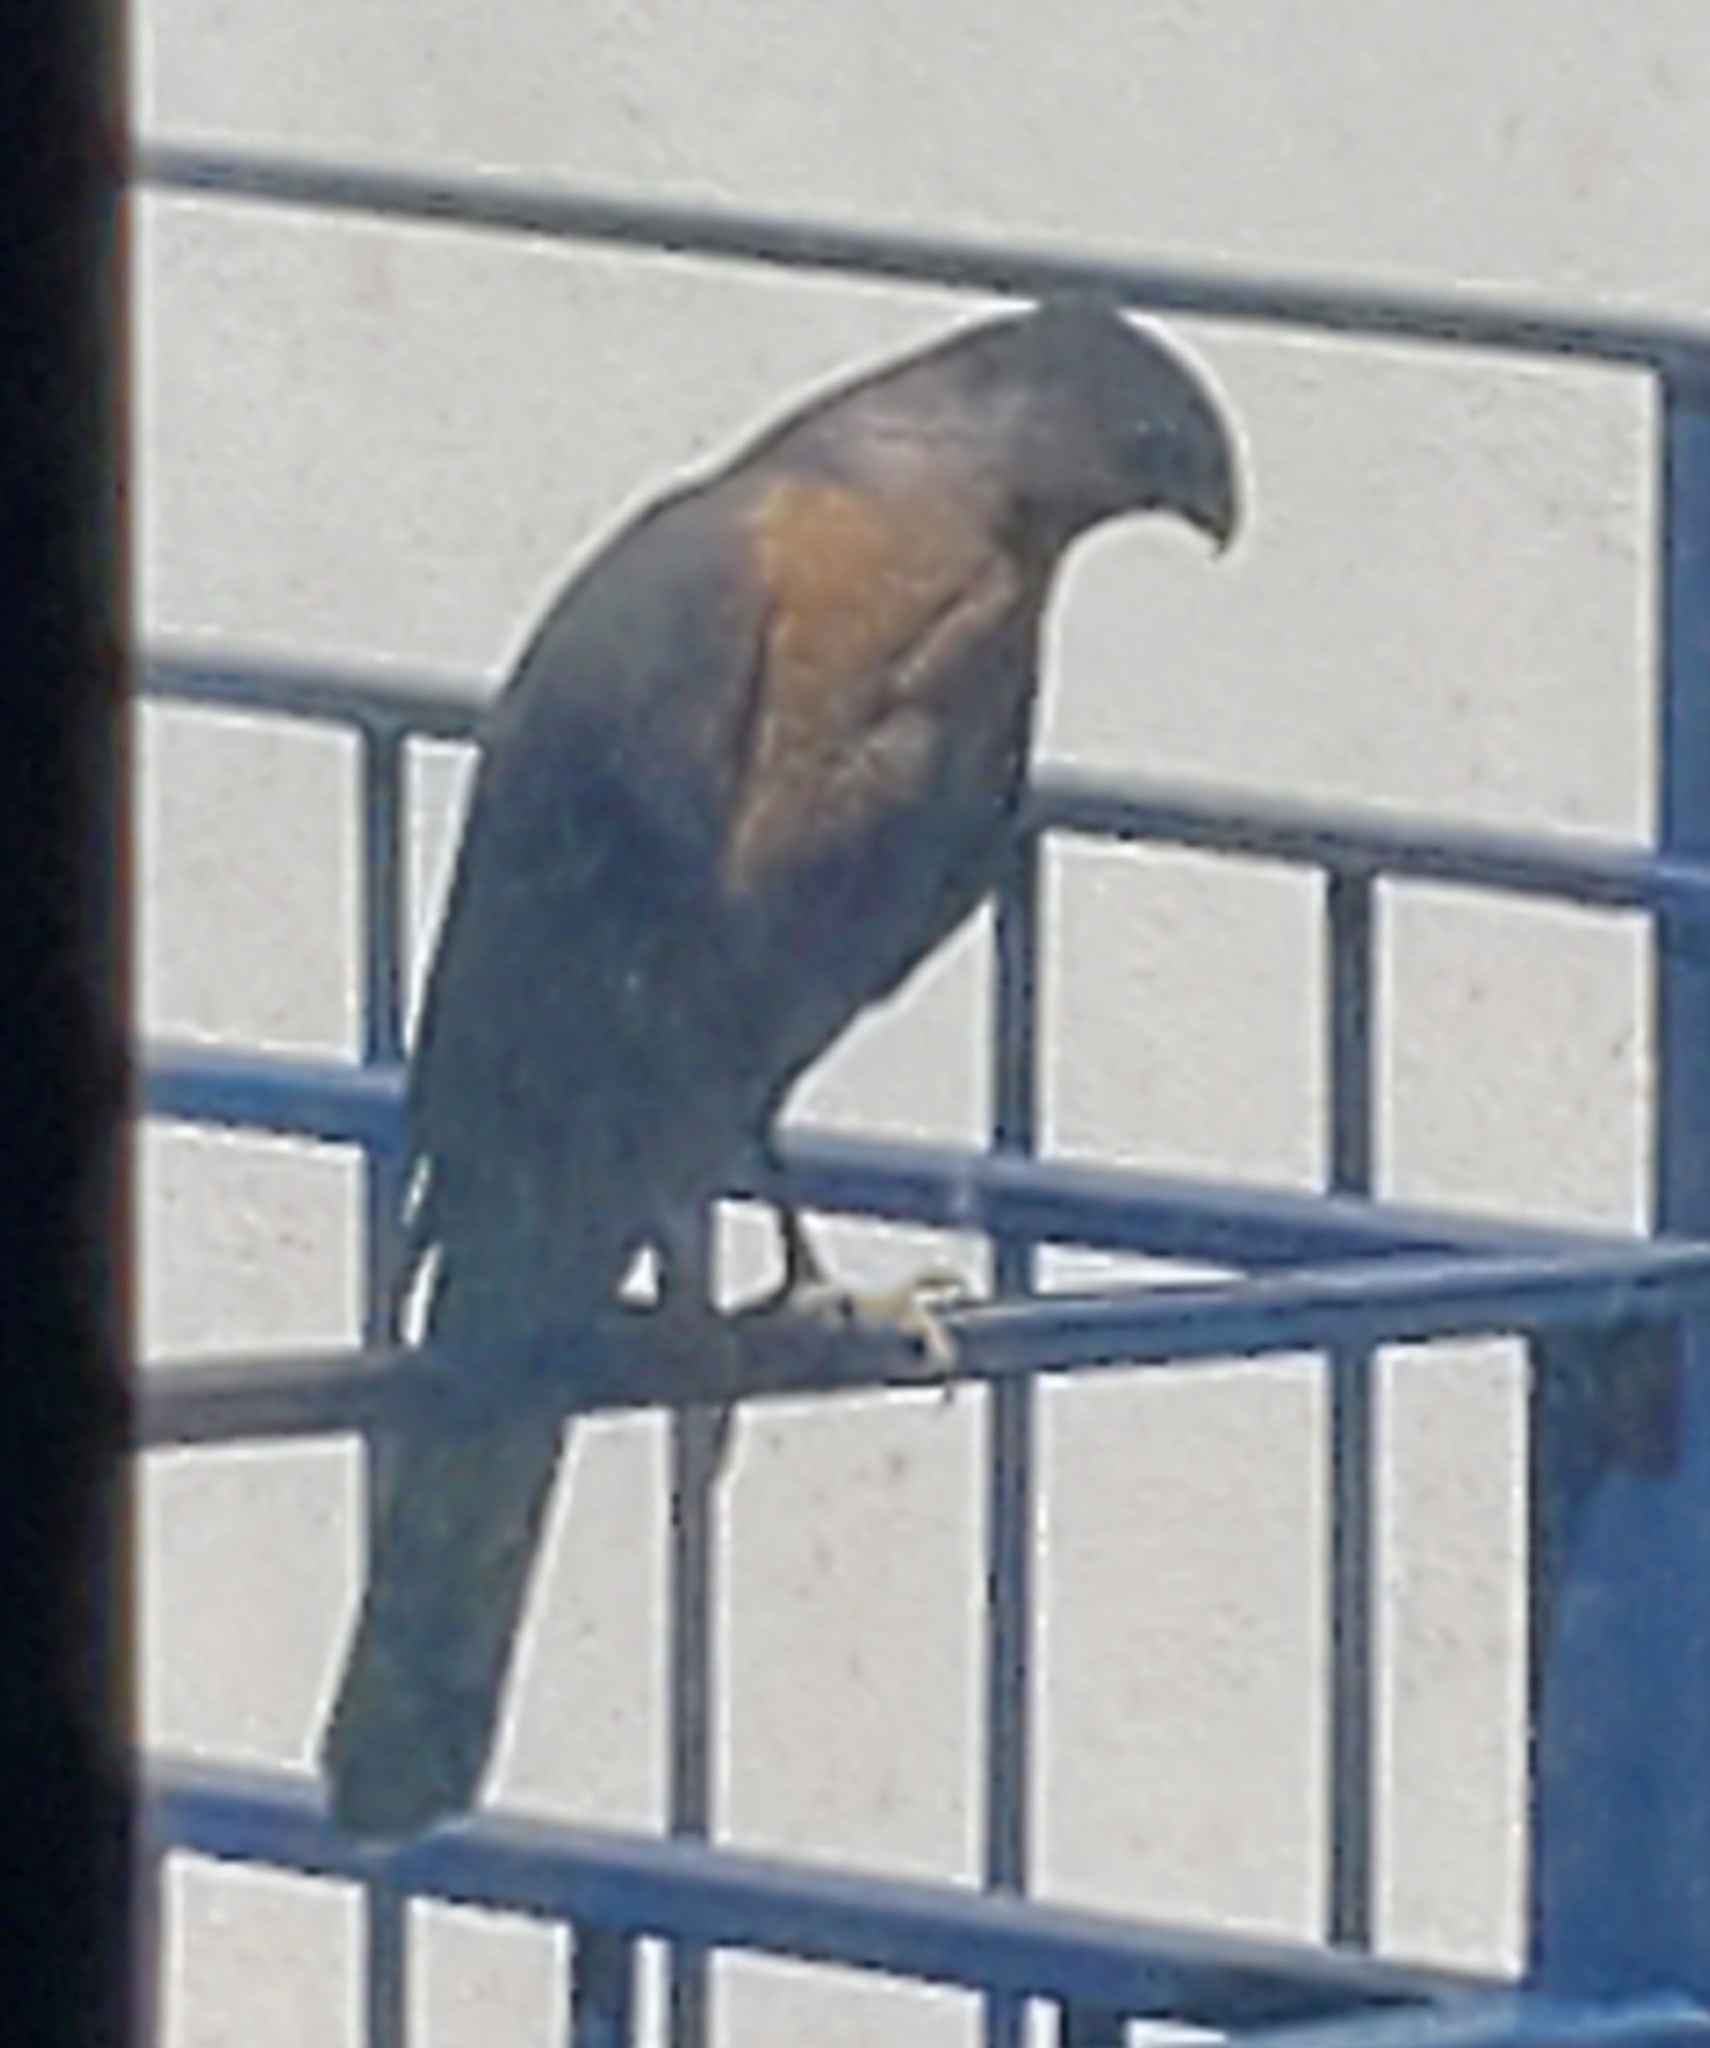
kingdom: Animalia
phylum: Chordata
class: Aves
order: Accipitriformes
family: Accipitridae
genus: Accipiter
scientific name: Accipiter cooperii
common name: Cooper's hawk
